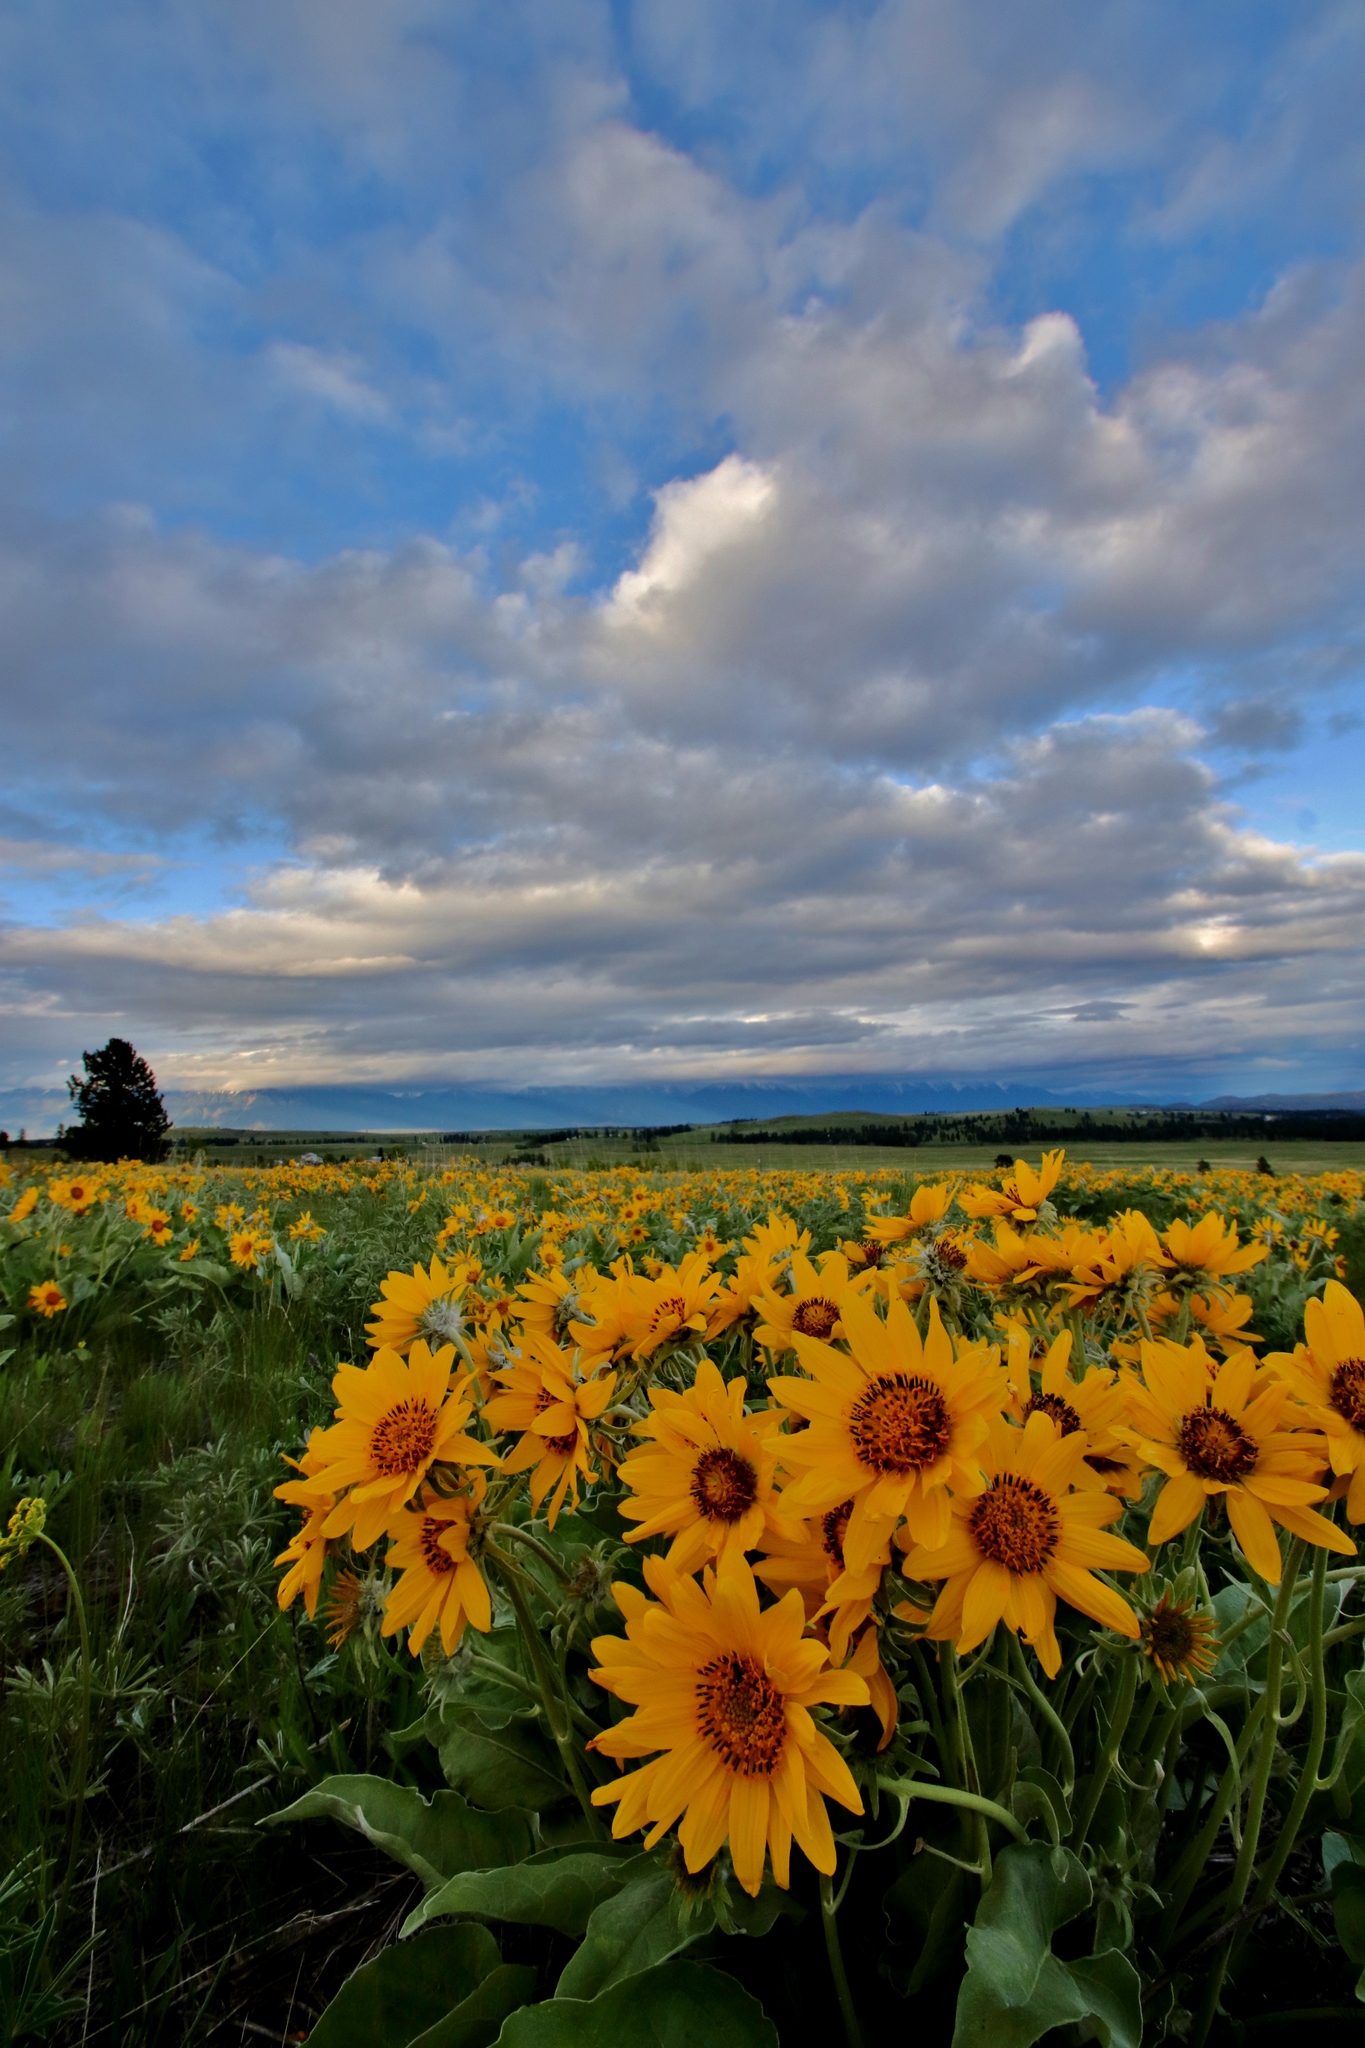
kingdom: Plantae
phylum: Tracheophyta
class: Magnoliopsida
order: Asterales
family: Asteraceae
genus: Wyethia
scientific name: Wyethia sagittata
